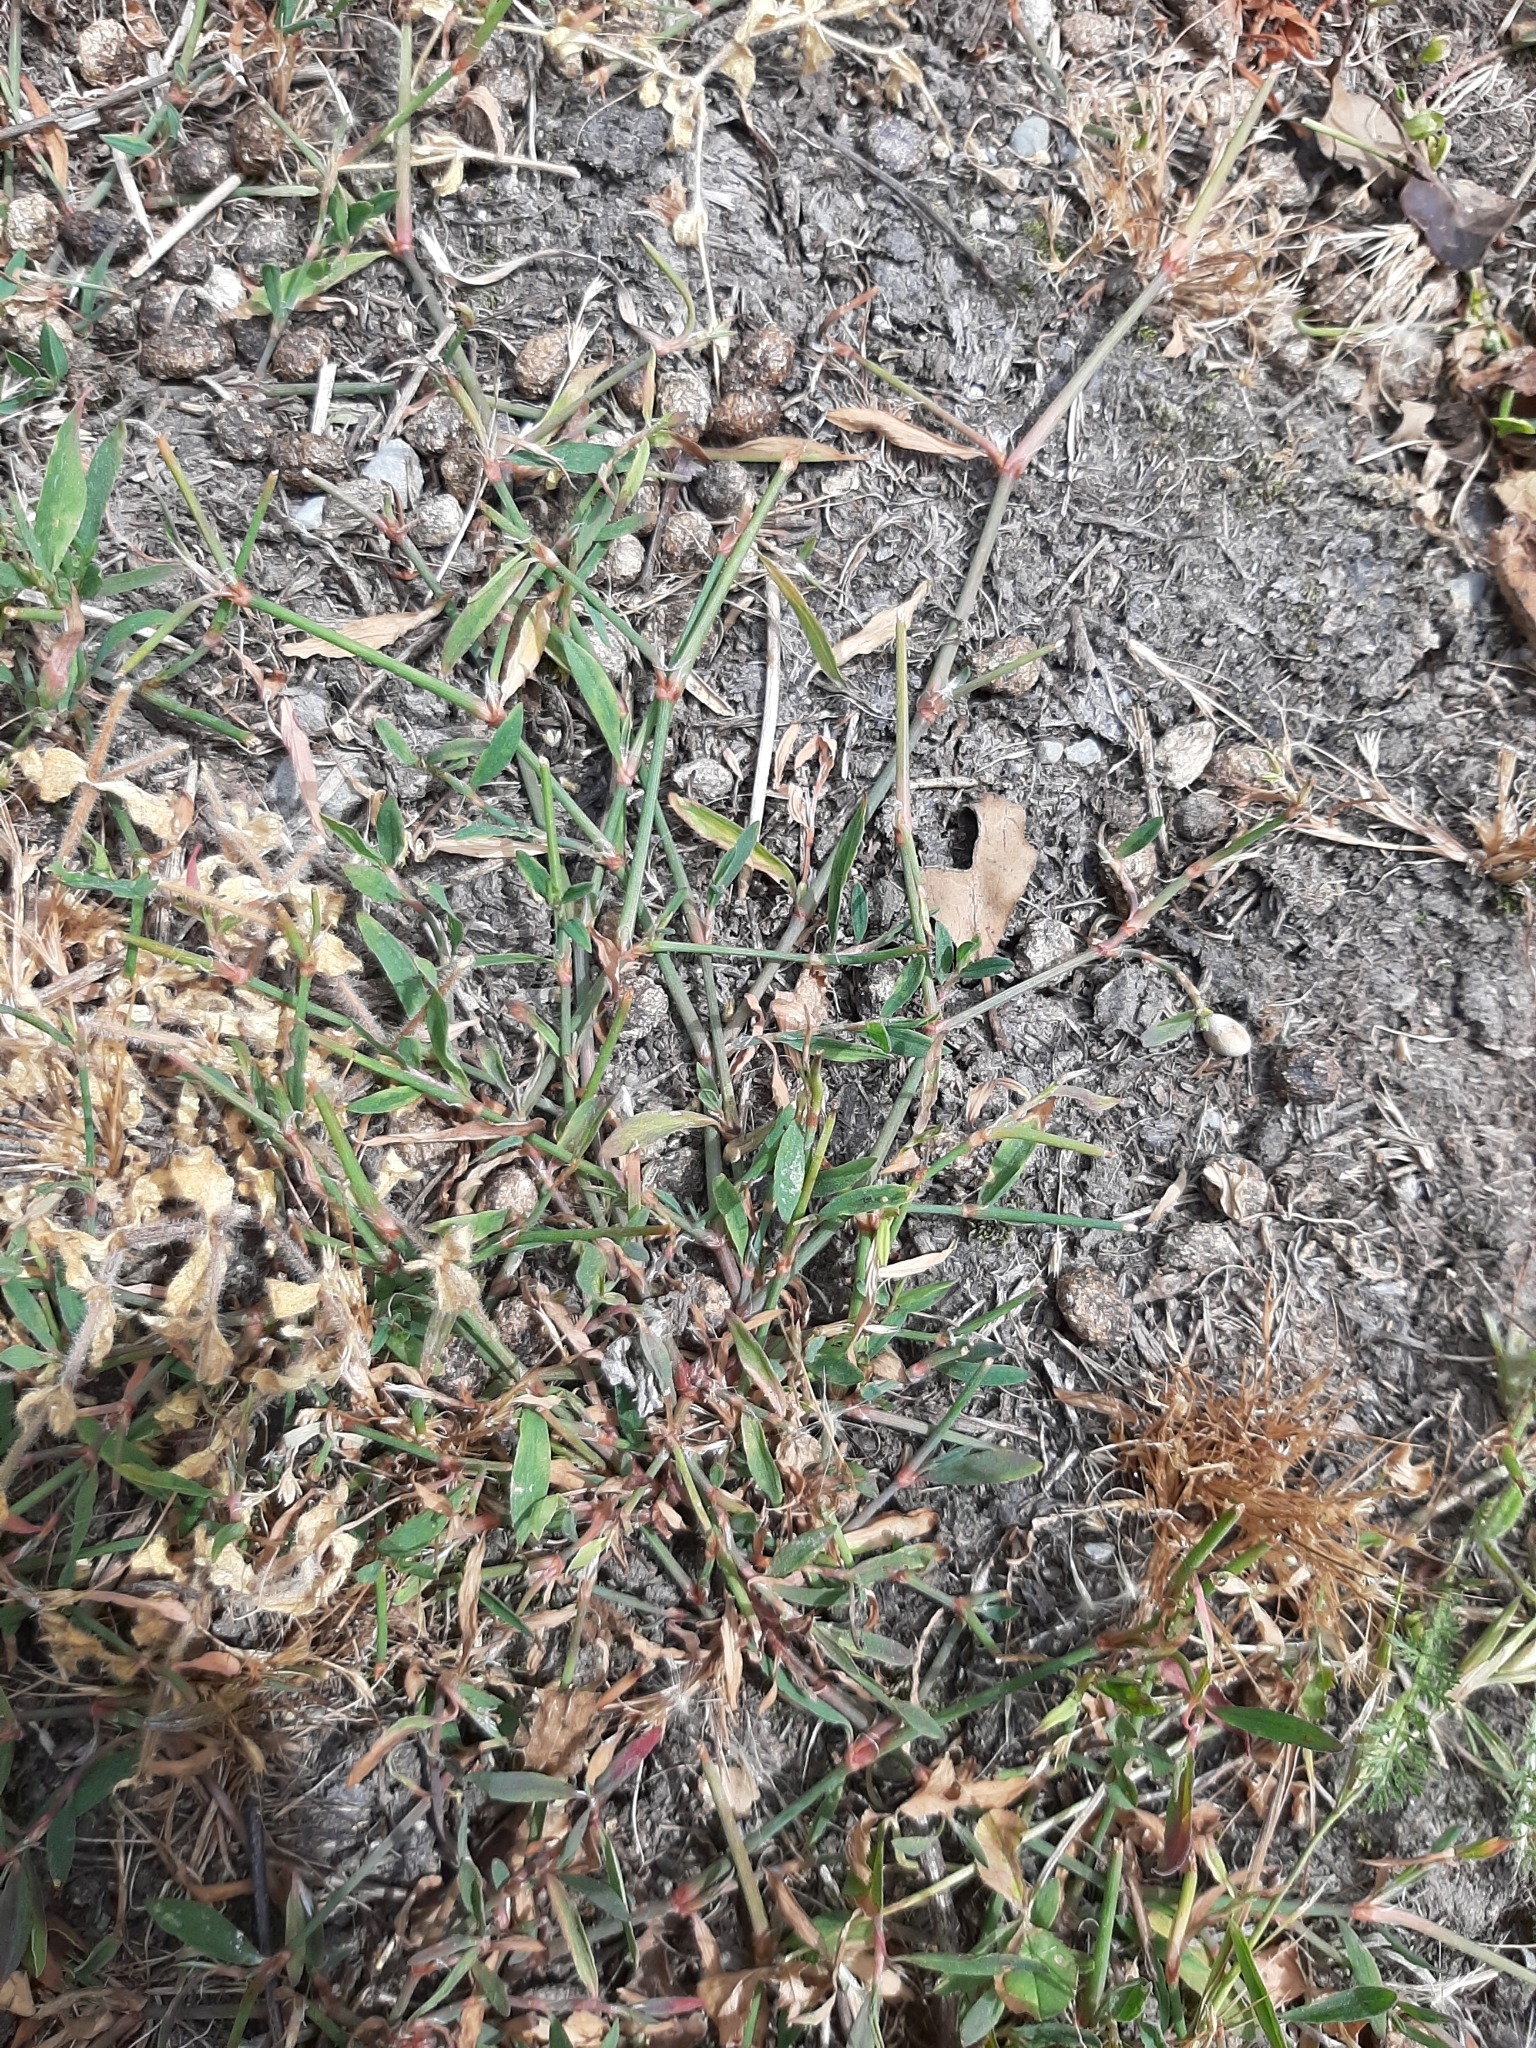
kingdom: Plantae
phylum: Tracheophyta
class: Magnoliopsida
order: Caryophyllales
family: Polygonaceae
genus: Polygonum
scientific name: Polygonum aviculare
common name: Prostrate knotweed
